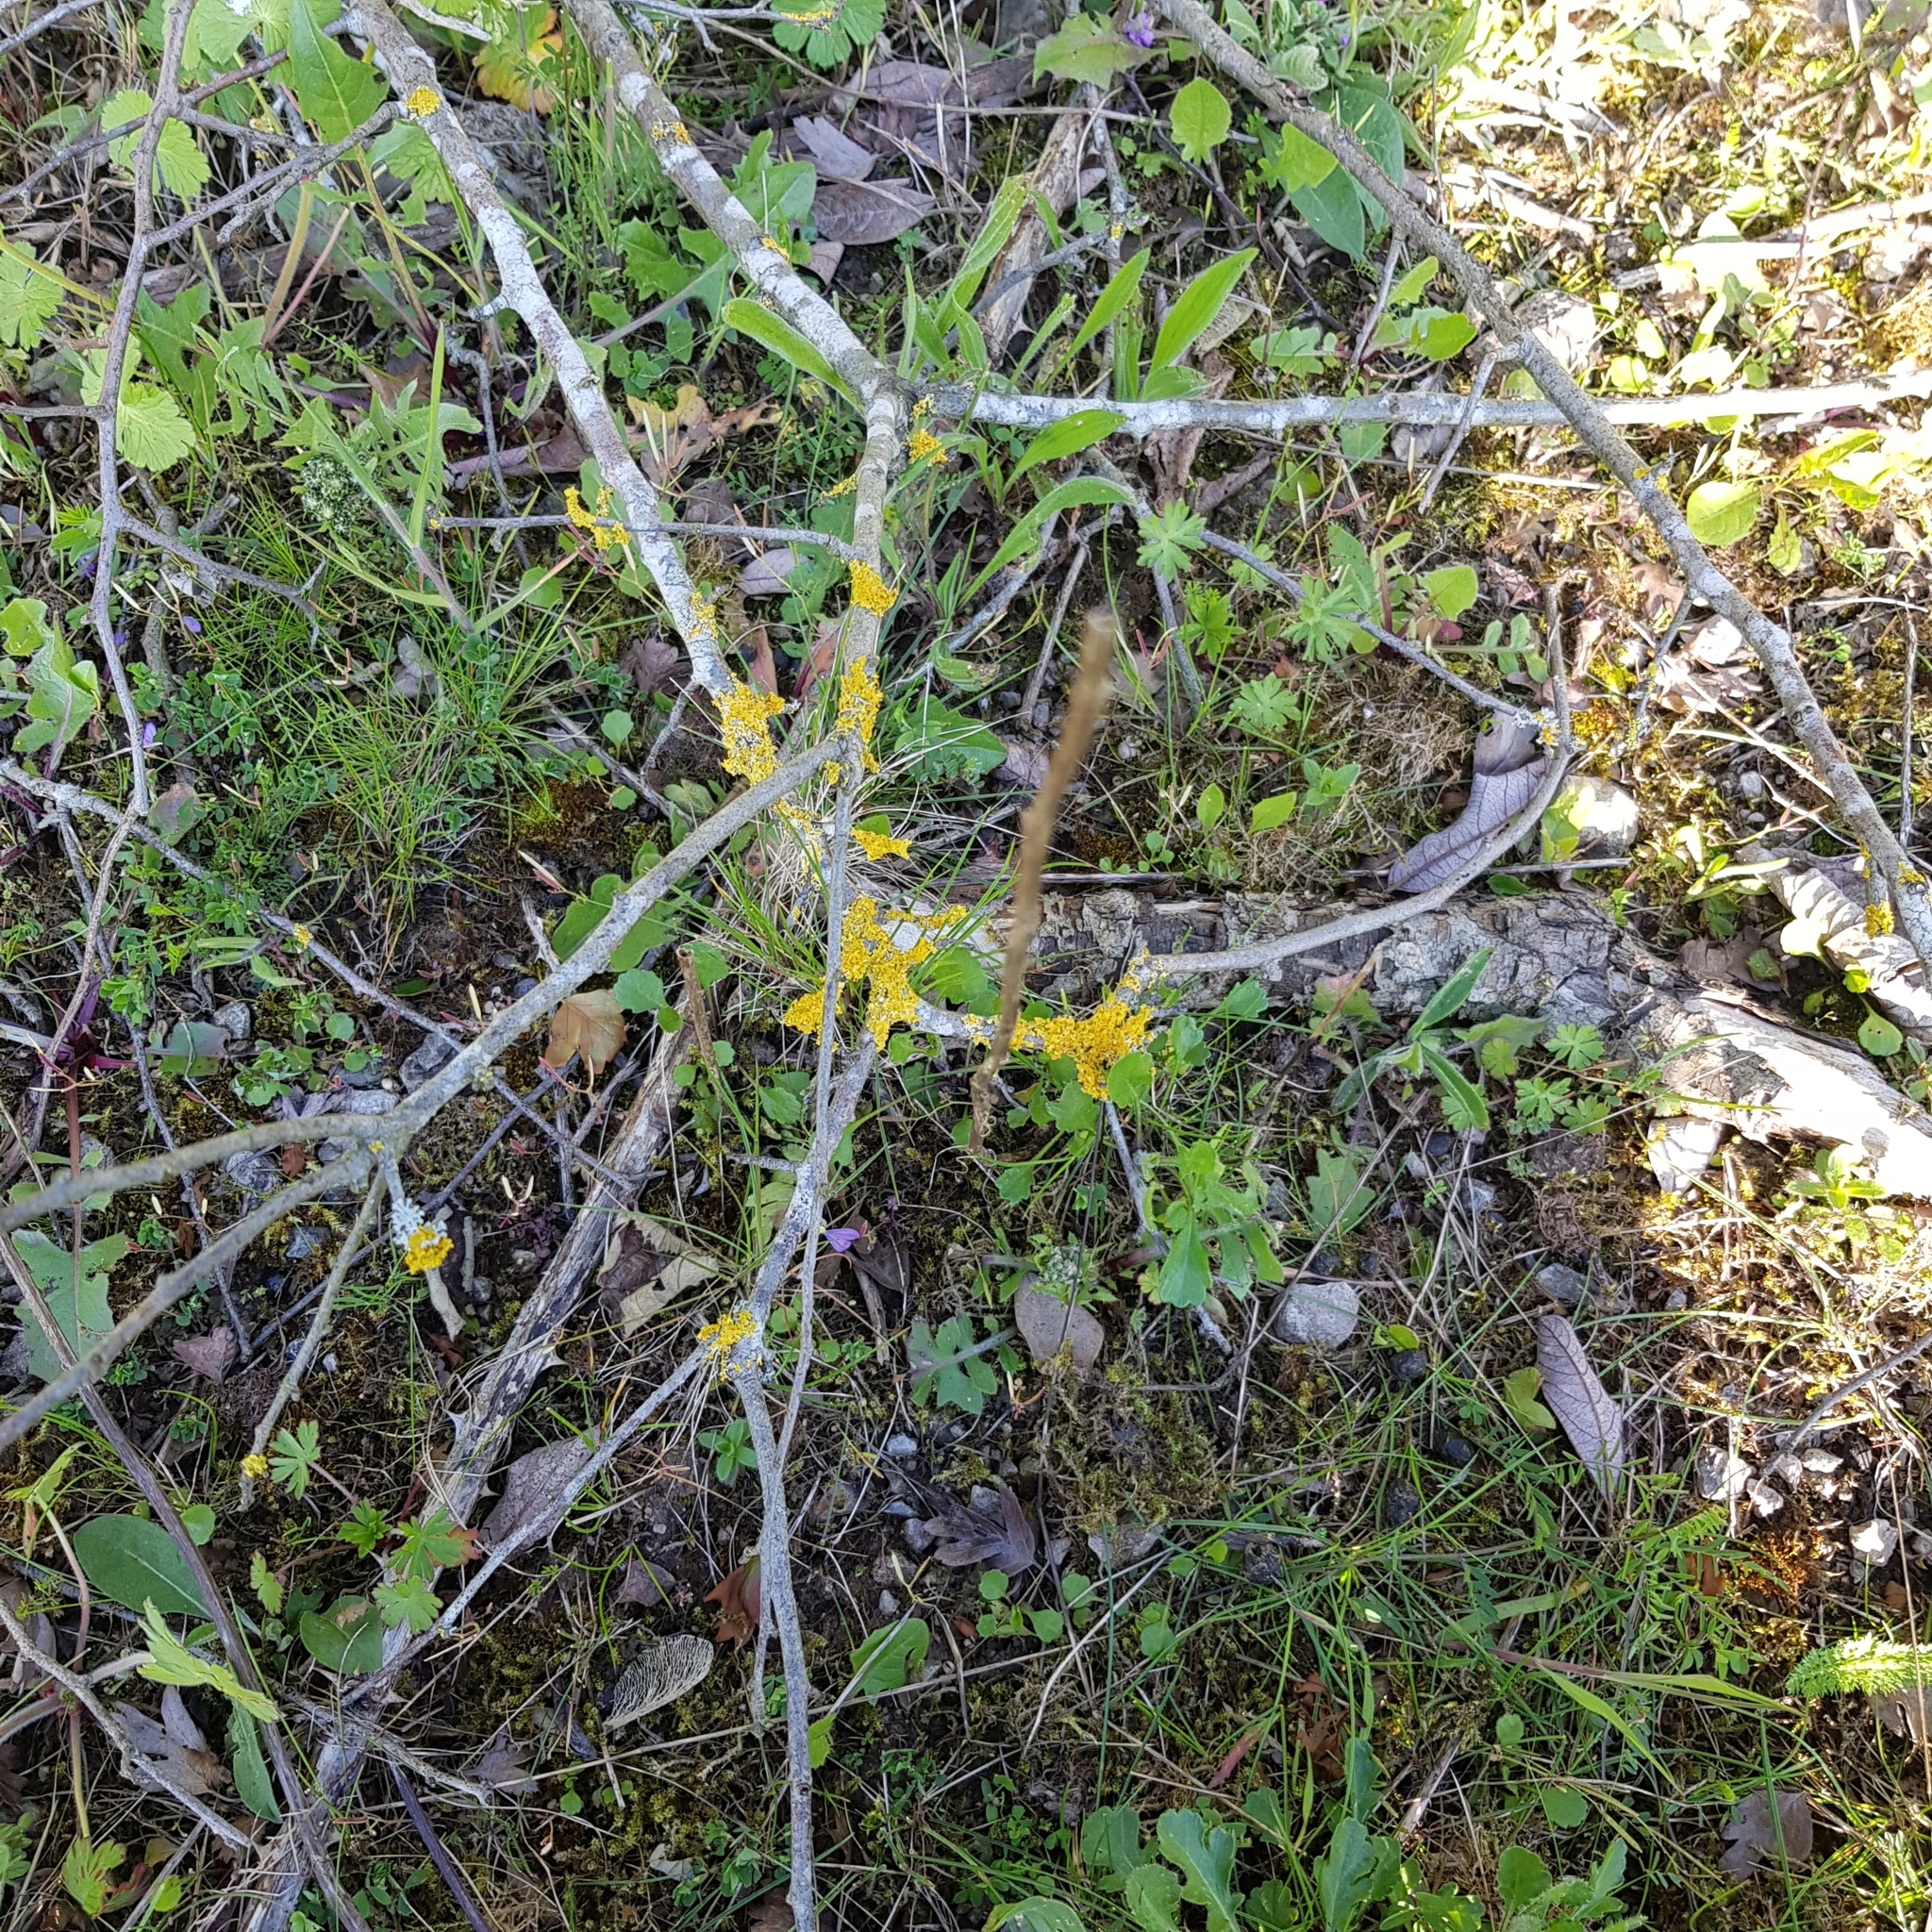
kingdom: Fungi
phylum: Ascomycota
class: Lecanoromycetes
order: Teloschistales
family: Teloschistaceae
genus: Xanthoria
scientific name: Xanthoria parietina
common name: Common orange lichen
